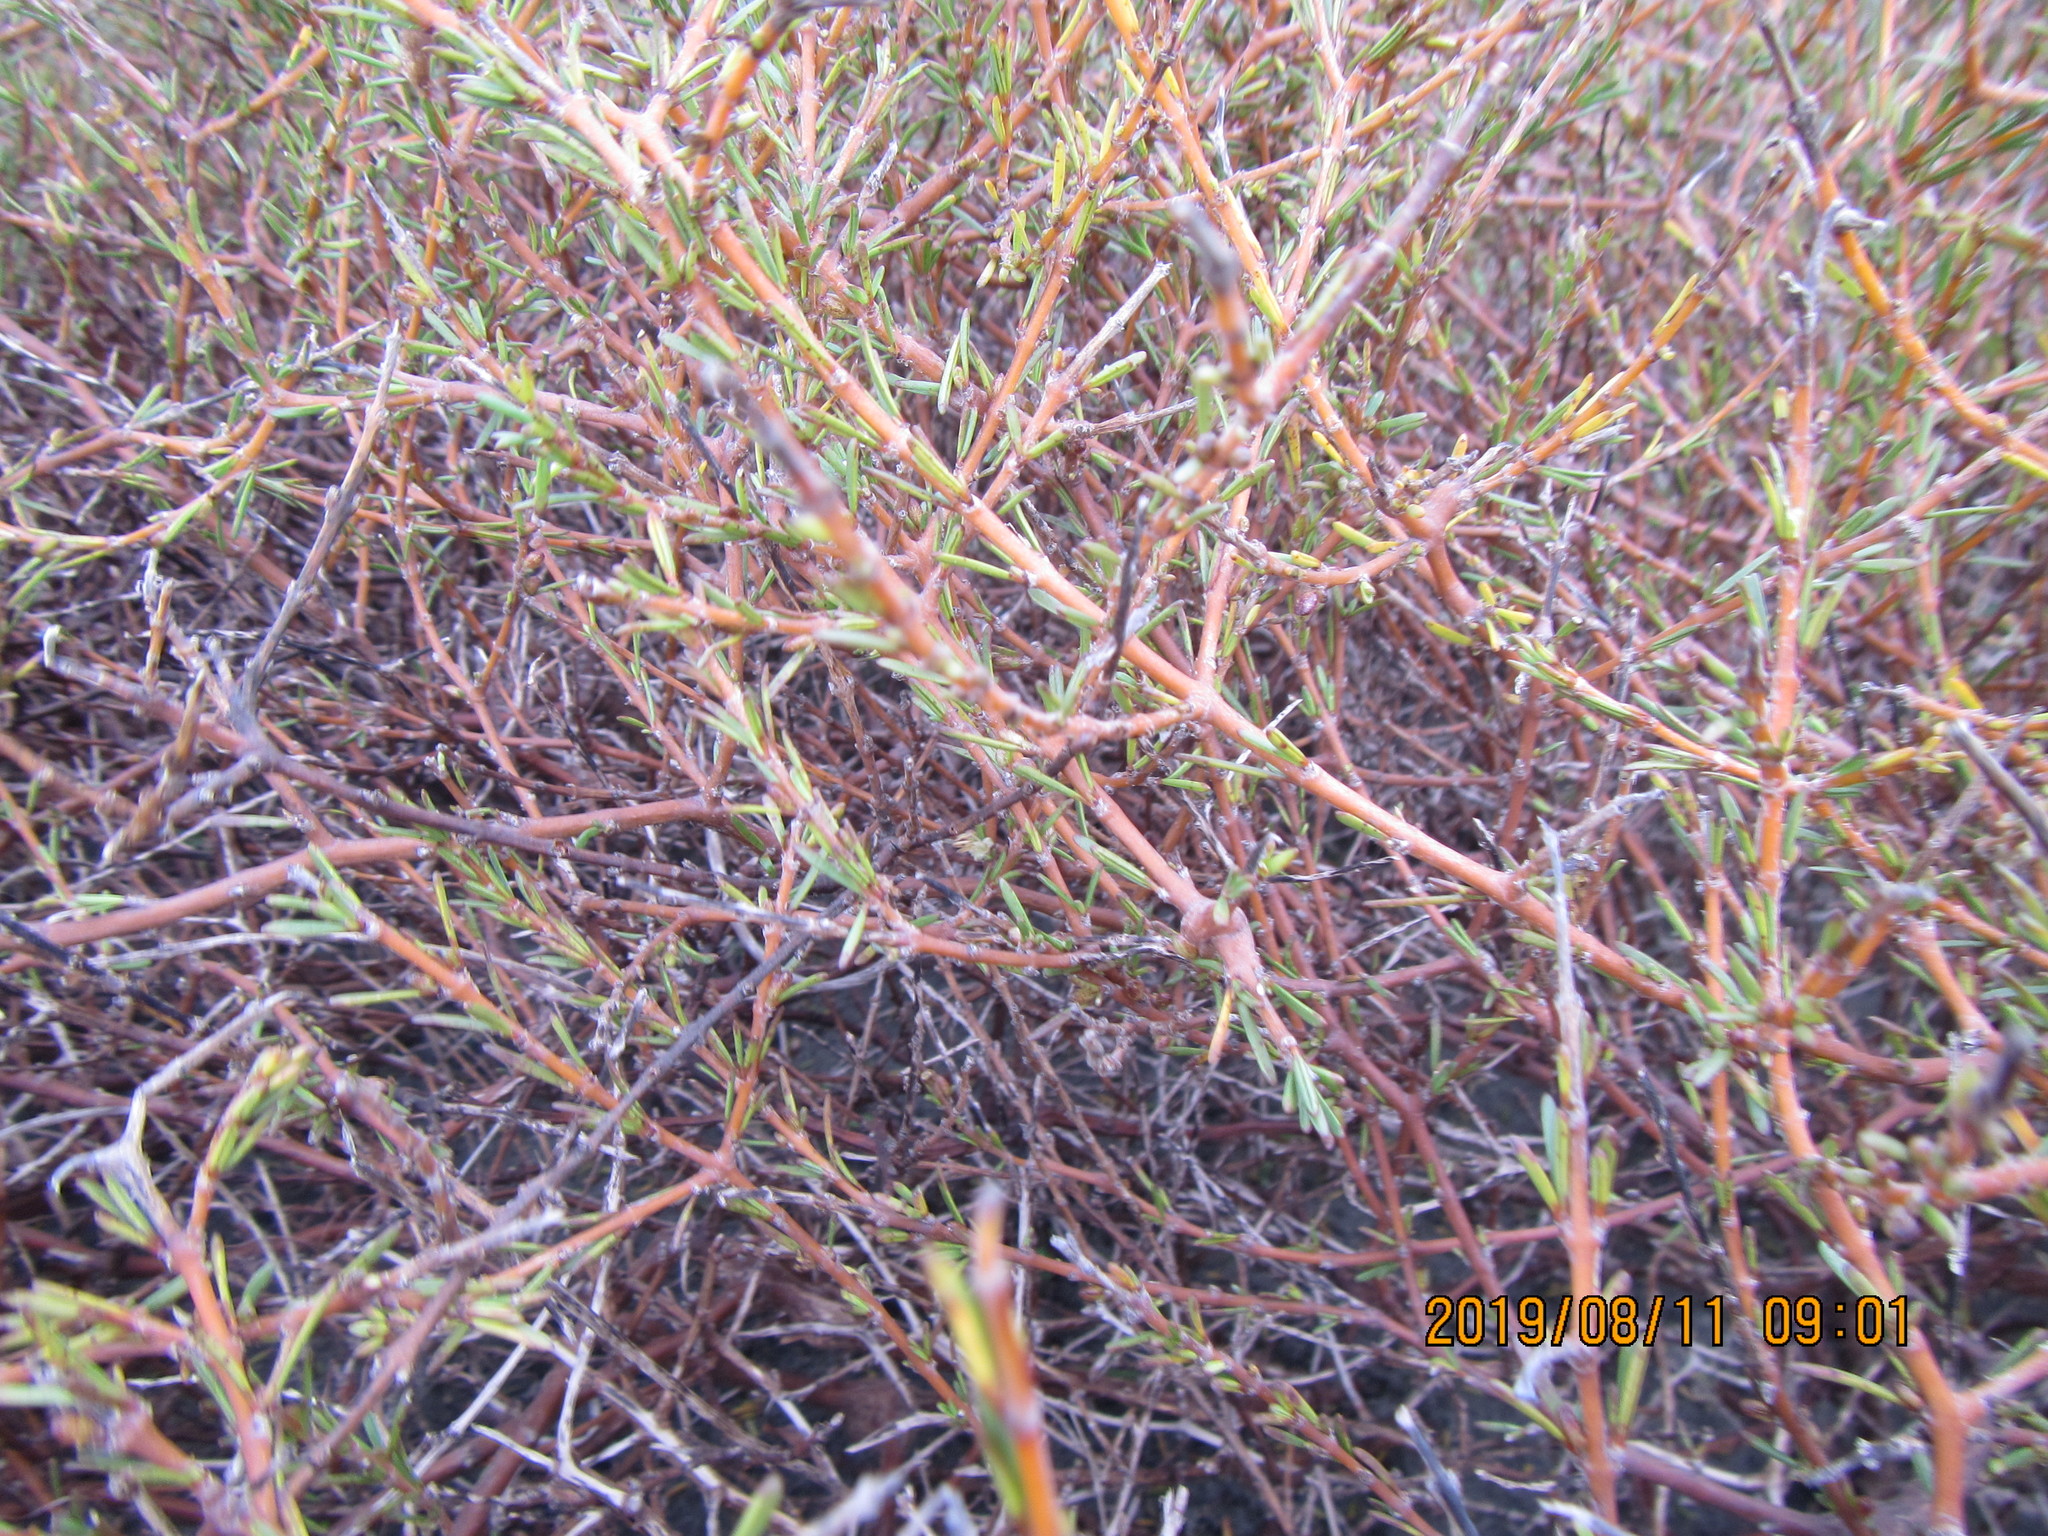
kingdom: Plantae
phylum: Tracheophyta
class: Magnoliopsida
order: Gentianales
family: Rubiaceae
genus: Coprosma
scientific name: Coprosma acerosa
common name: Sand coprosma
